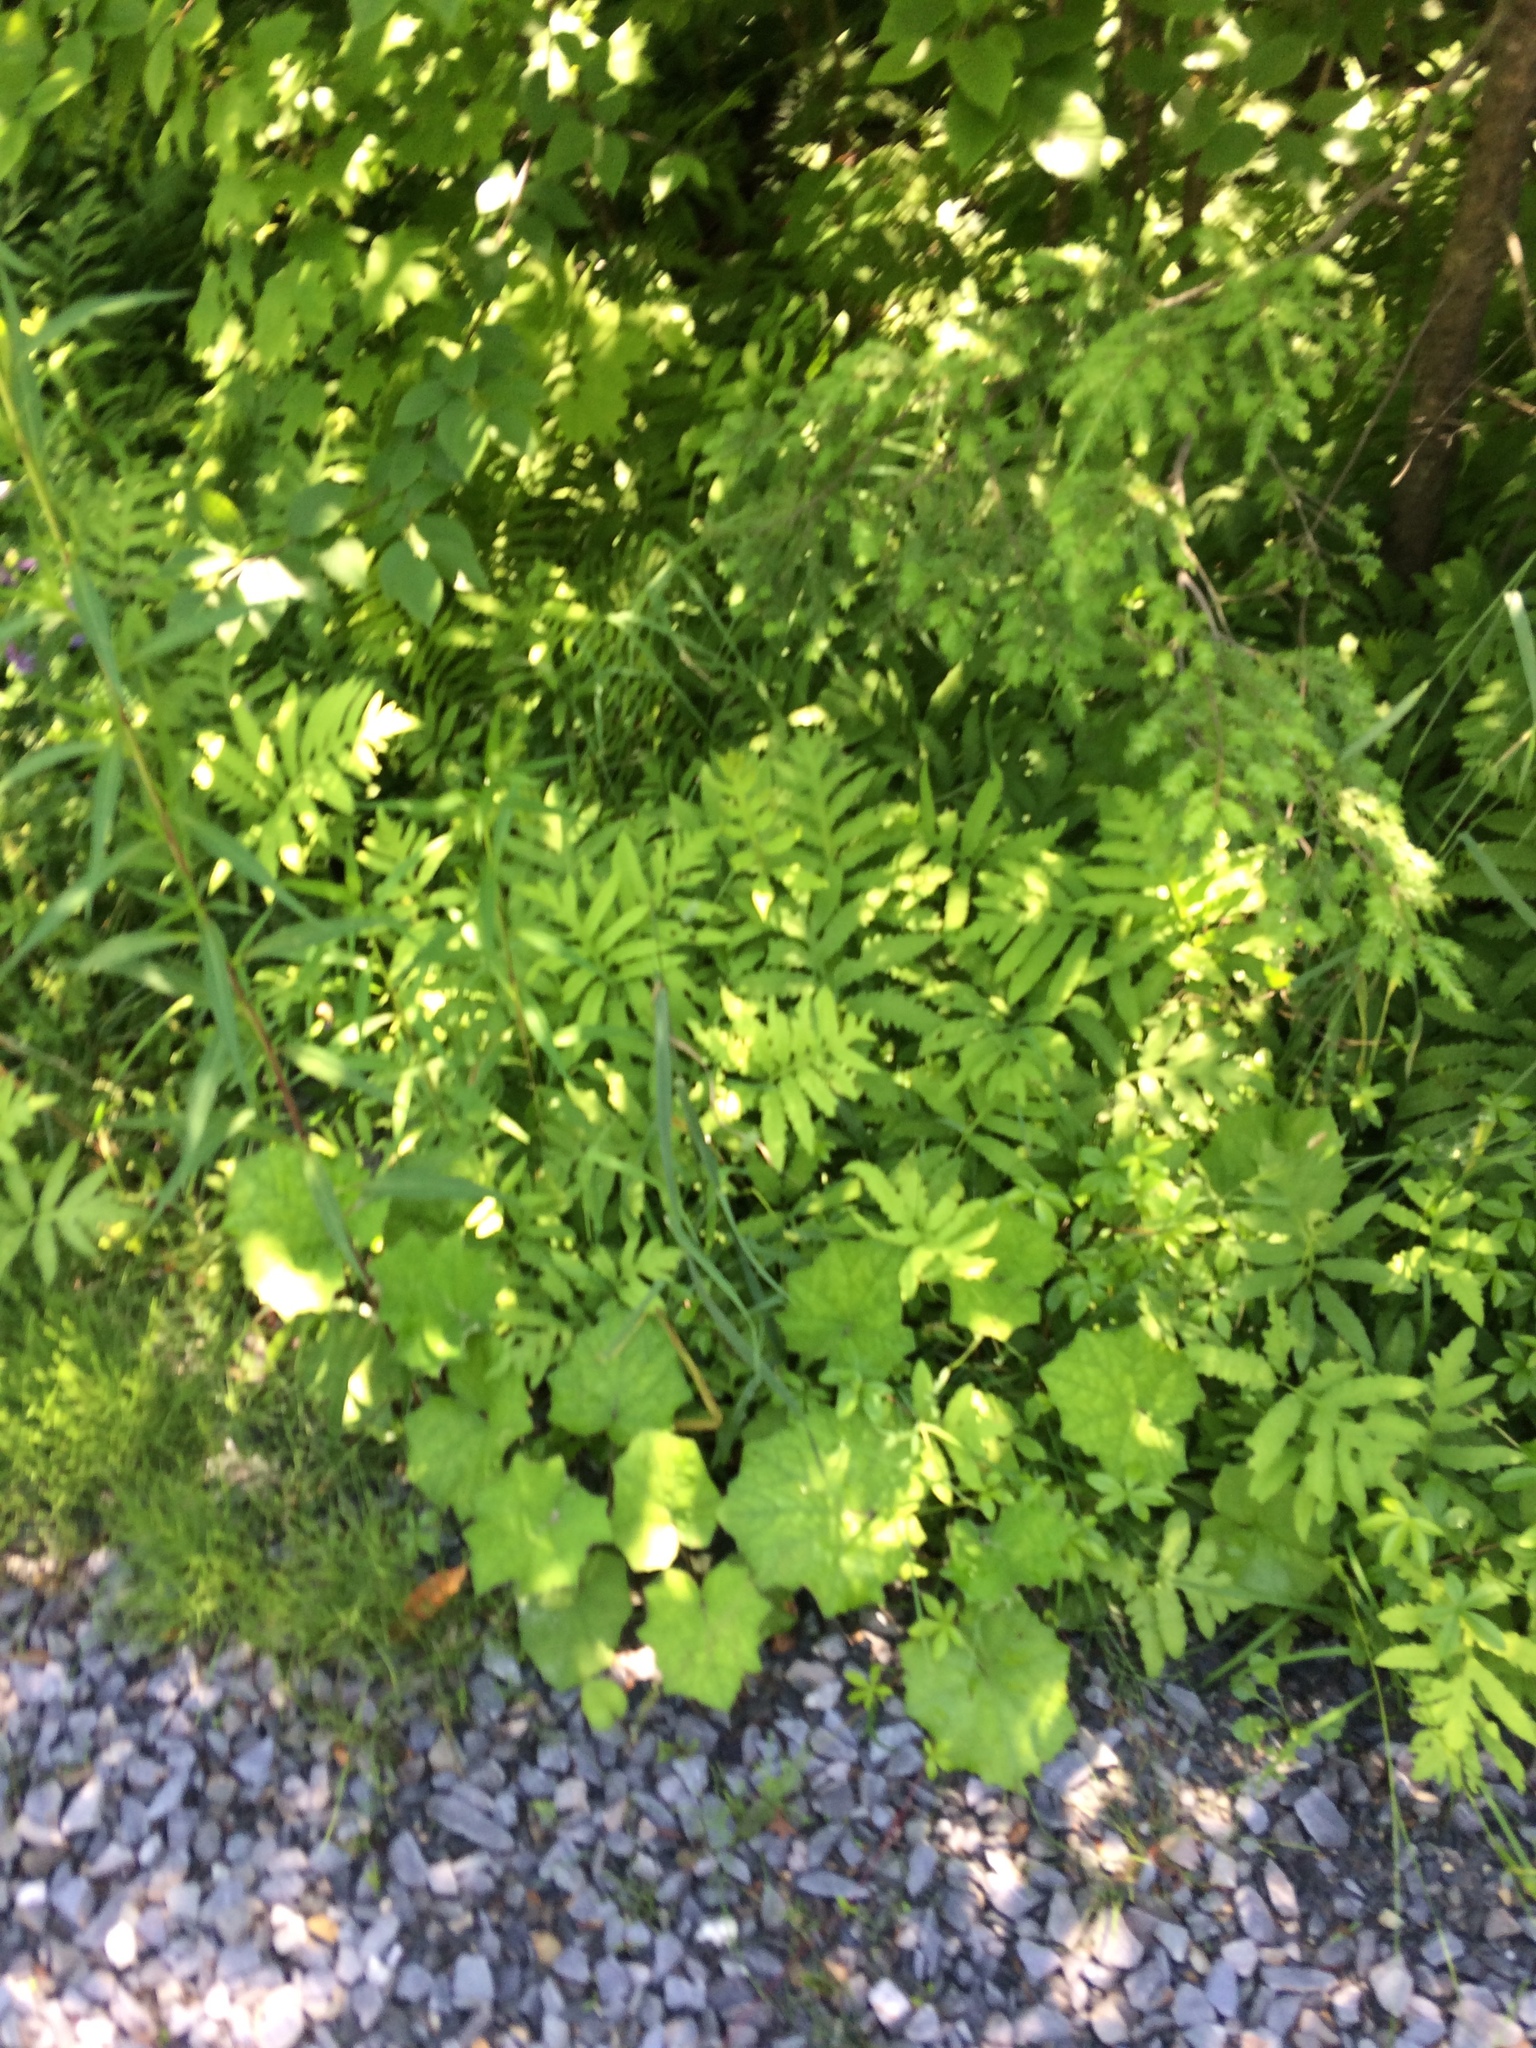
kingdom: Plantae
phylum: Tracheophyta
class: Polypodiopsida
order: Polypodiales
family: Onocleaceae
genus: Onoclea
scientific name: Onoclea sensibilis
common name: Sensitive fern
